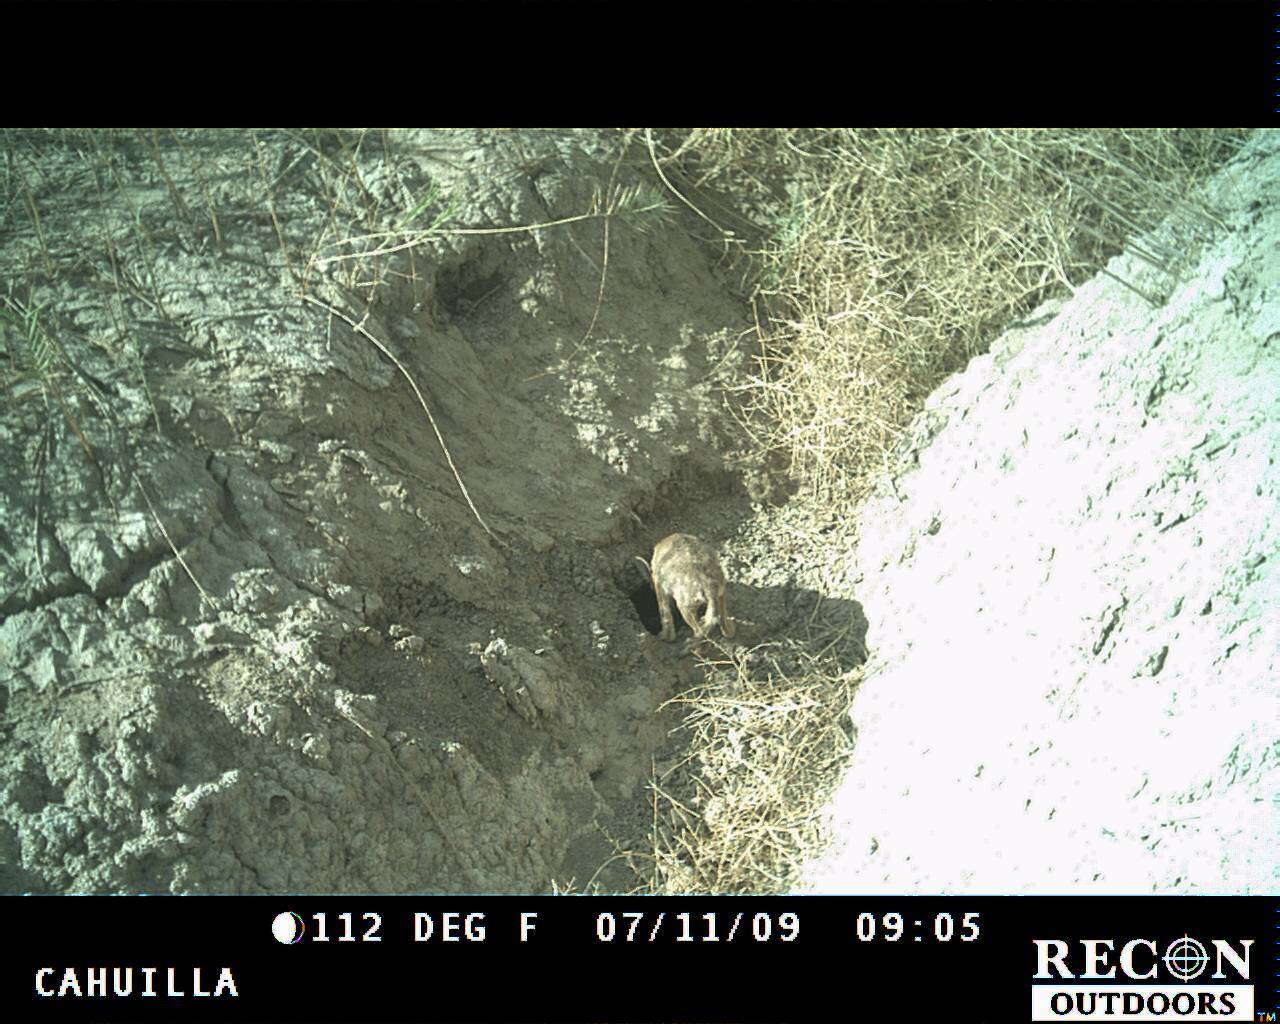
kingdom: Animalia
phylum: Chordata
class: Mammalia
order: Carnivora
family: Canidae
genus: Canis
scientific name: Canis latrans
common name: Coyote
